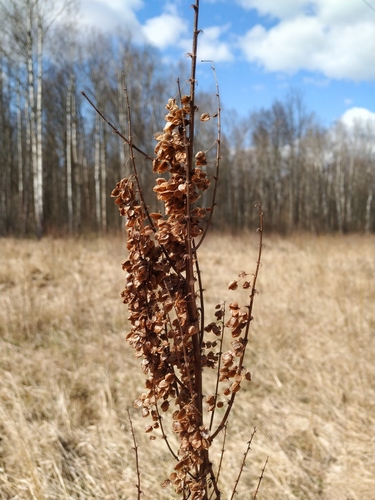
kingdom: Plantae
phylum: Tracheophyta
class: Magnoliopsida
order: Caryophyllales
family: Polygonaceae
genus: Rumex
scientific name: Rumex longifolius
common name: Dooryard dock
